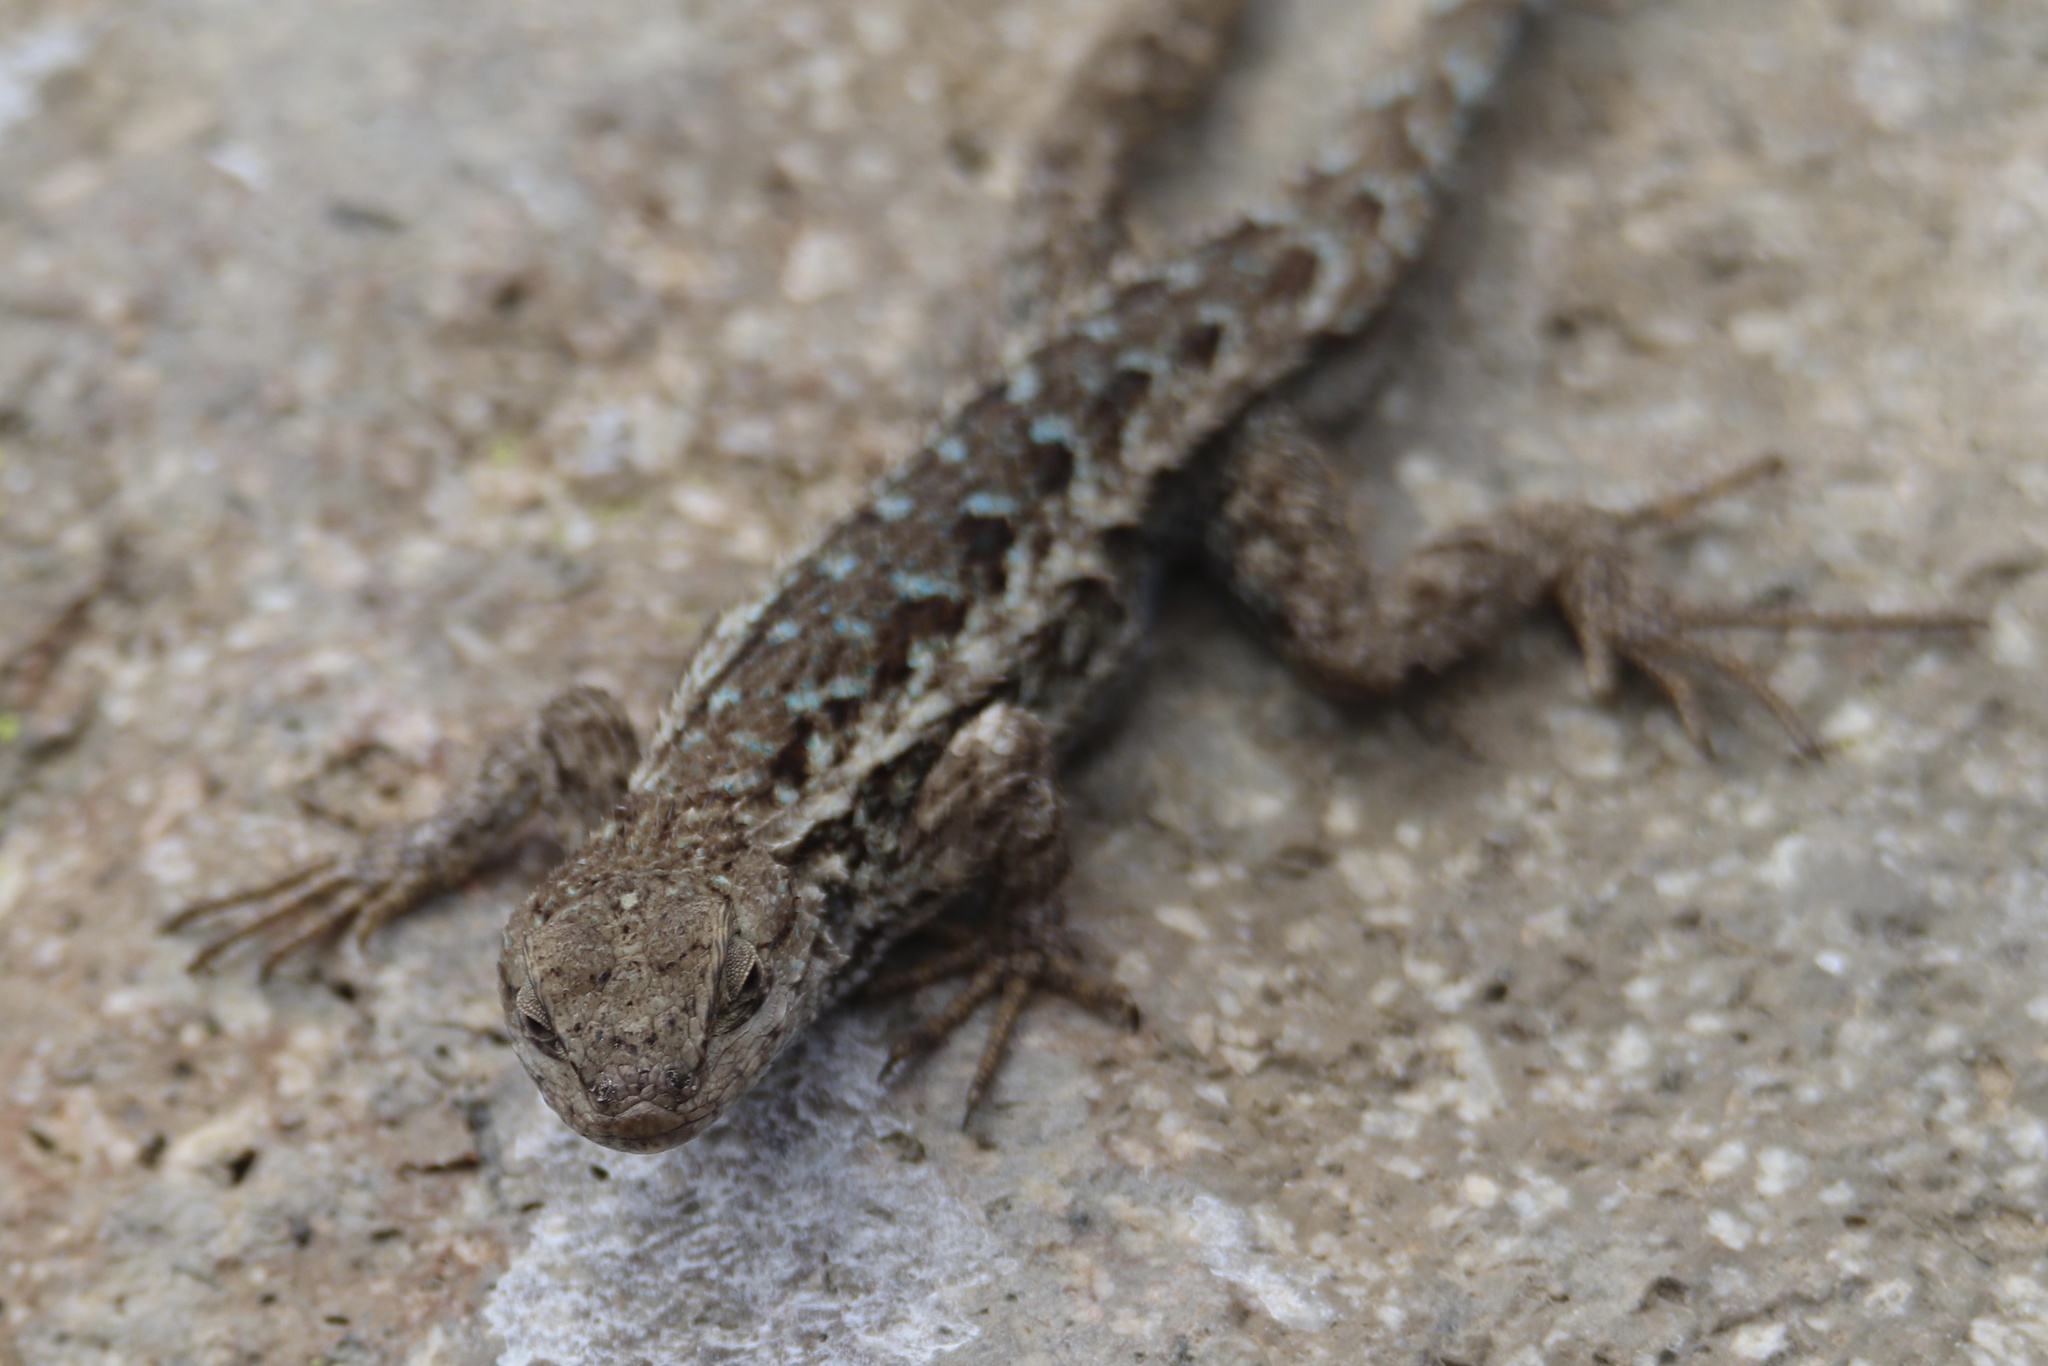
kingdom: Animalia
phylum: Chordata
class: Squamata
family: Phrynosomatidae
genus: Sceloporus
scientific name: Sceloporus occidentalis
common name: Western fence lizard
